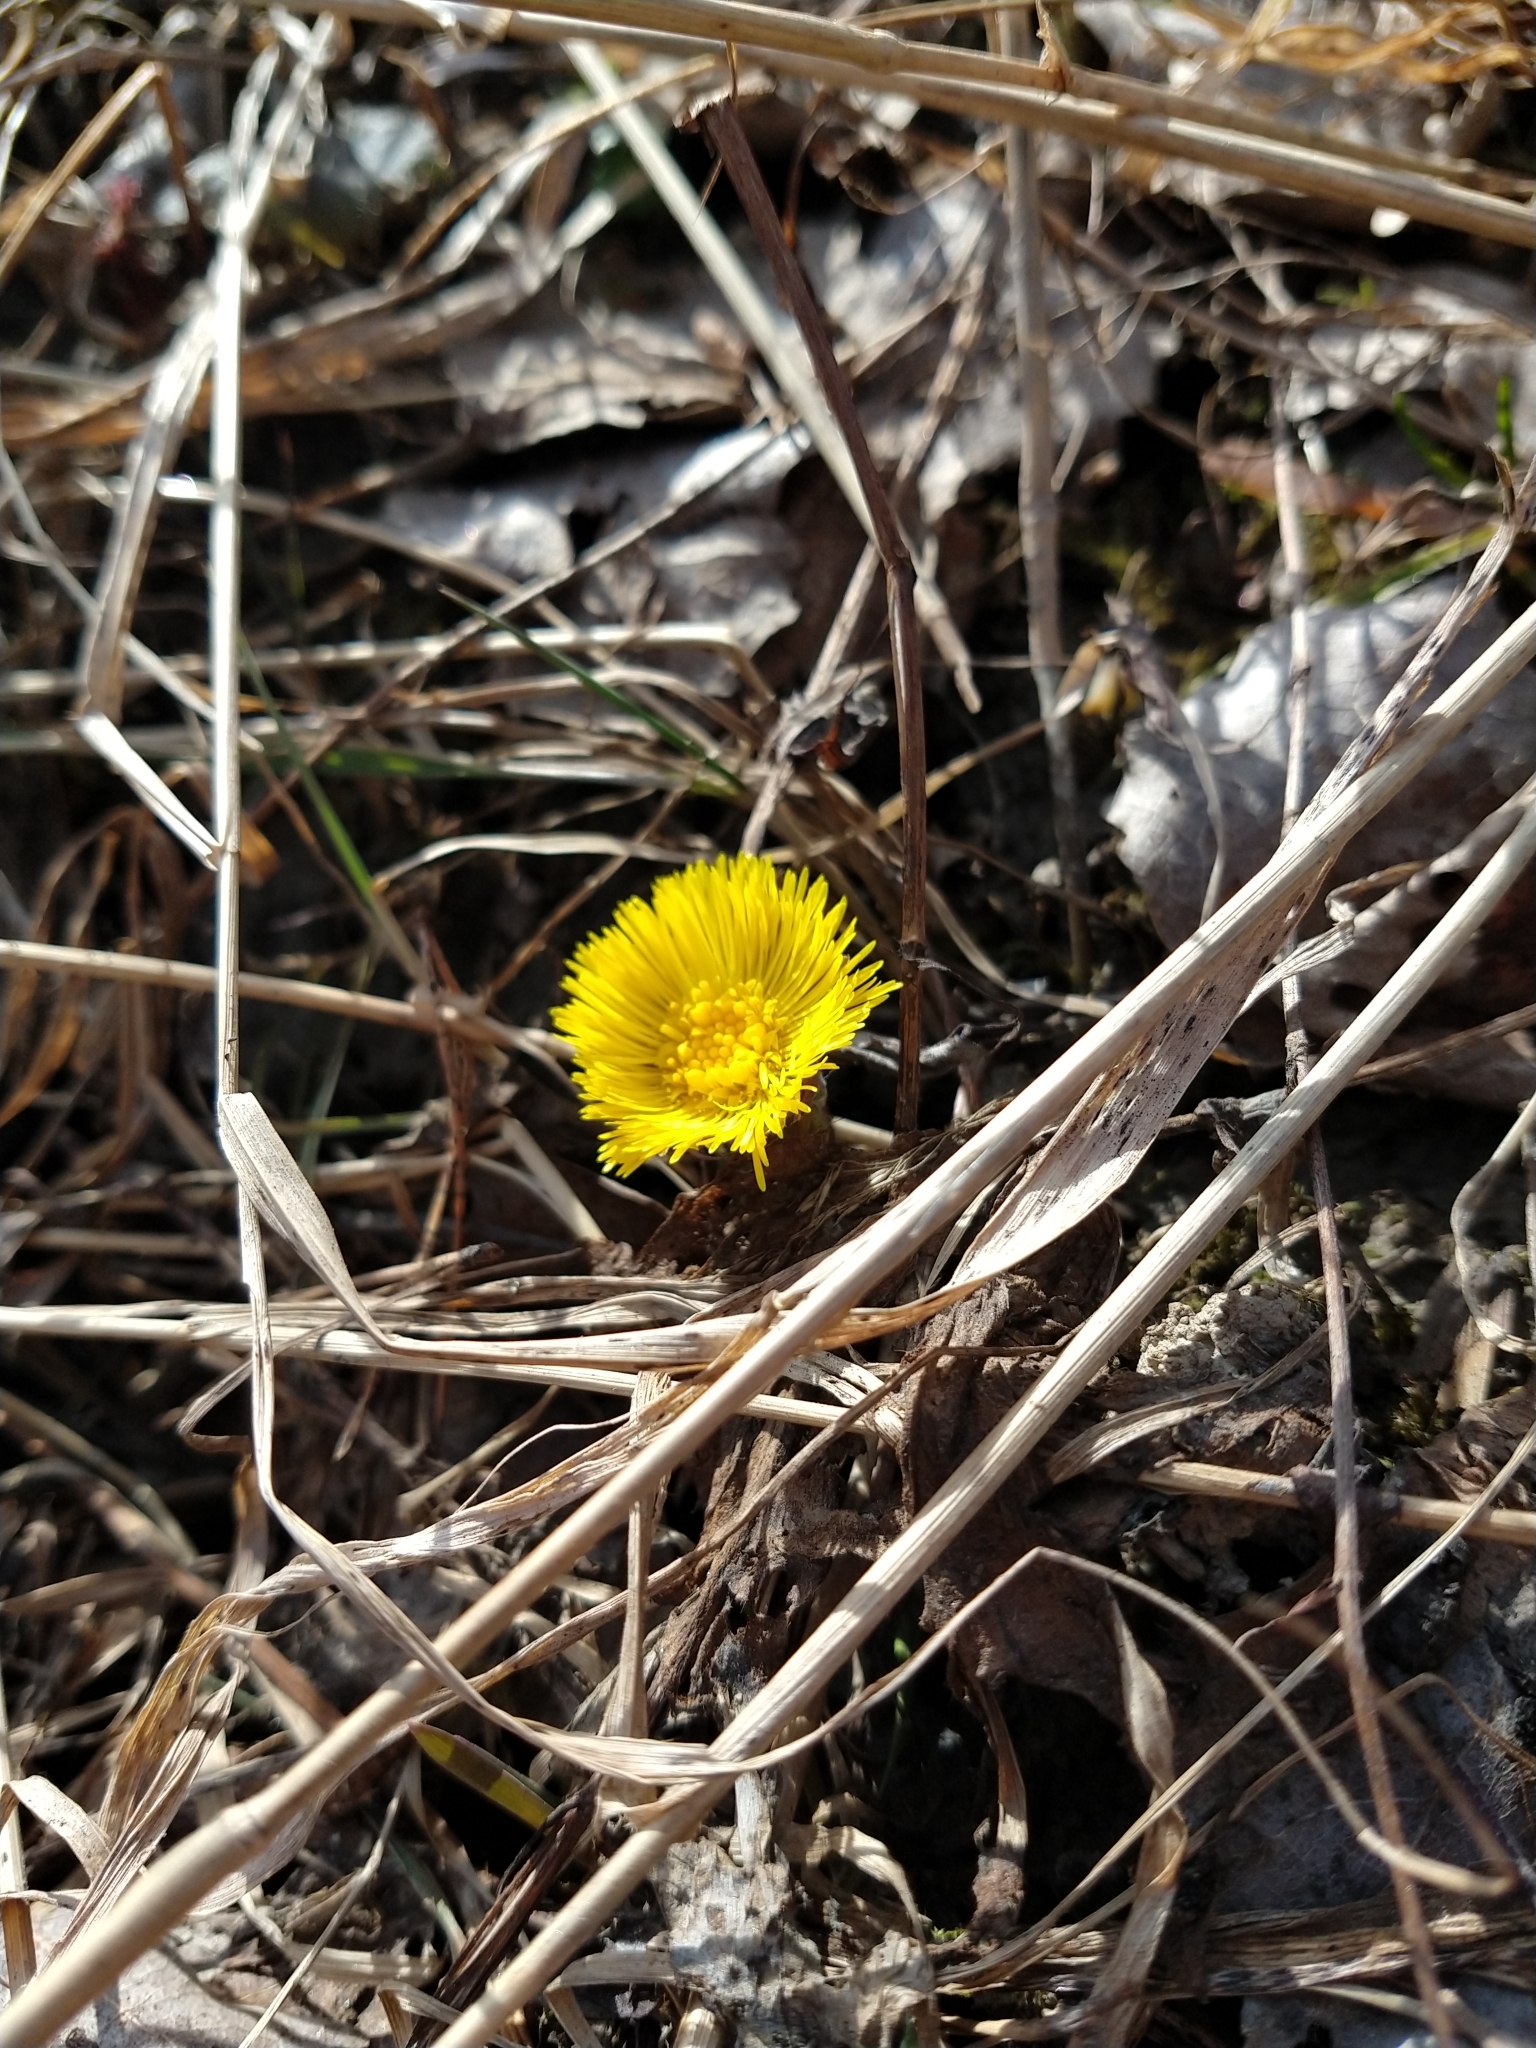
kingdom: Plantae
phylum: Tracheophyta
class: Magnoliopsida
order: Asterales
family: Asteraceae
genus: Tussilago
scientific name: Tussilago farfara
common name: Coltsfoot
